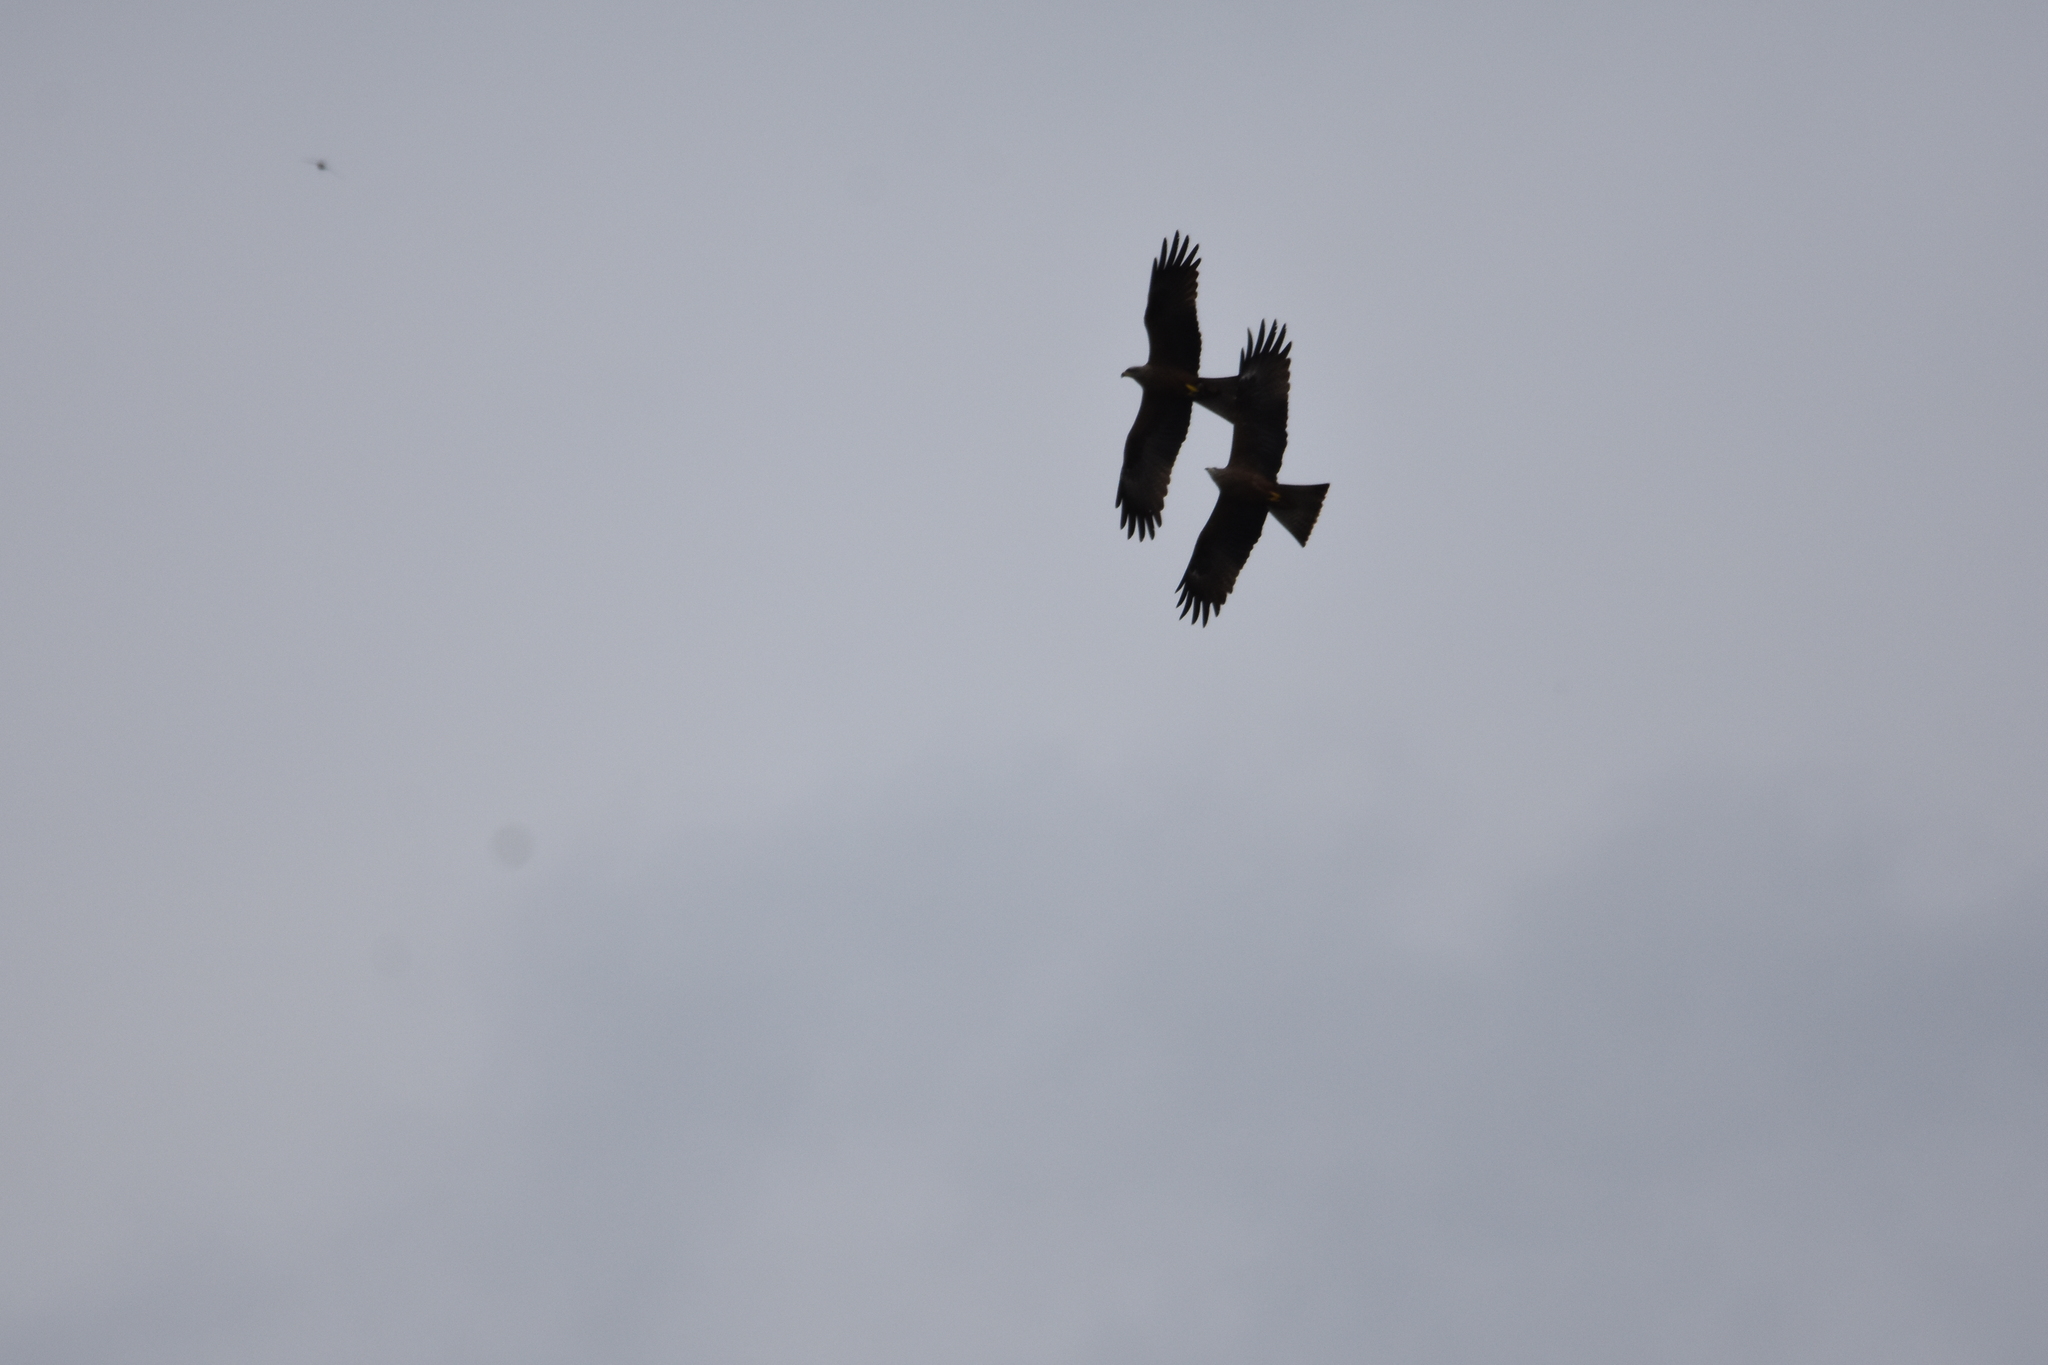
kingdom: Animalia
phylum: Chordata
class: Aves
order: Accipitriformes
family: Accipitridae
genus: Milvus
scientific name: Milvus migrans
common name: Black kite
